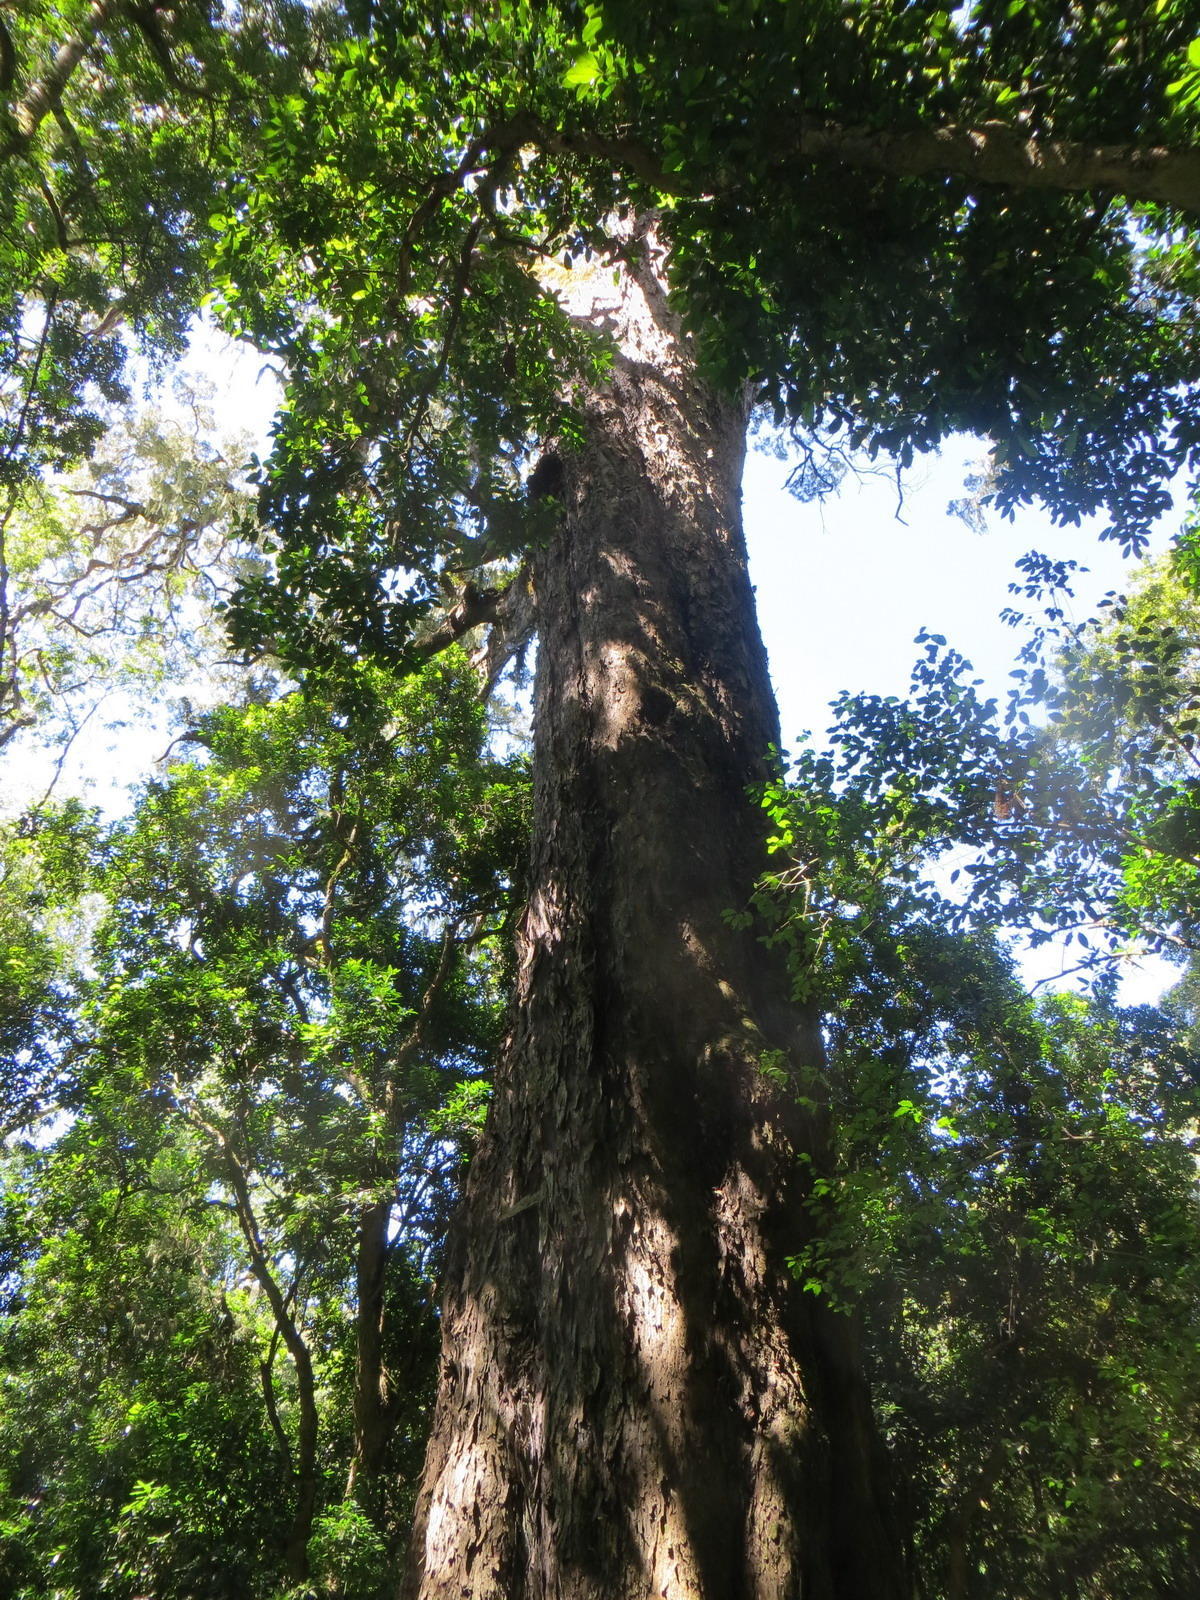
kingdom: Plantae
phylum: Tracheophyta
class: Pinopsida
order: Pinales
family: Podocarpaceae
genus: Afrocarpus
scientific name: Afrocarpus falcatus
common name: Bastard yellowwood
